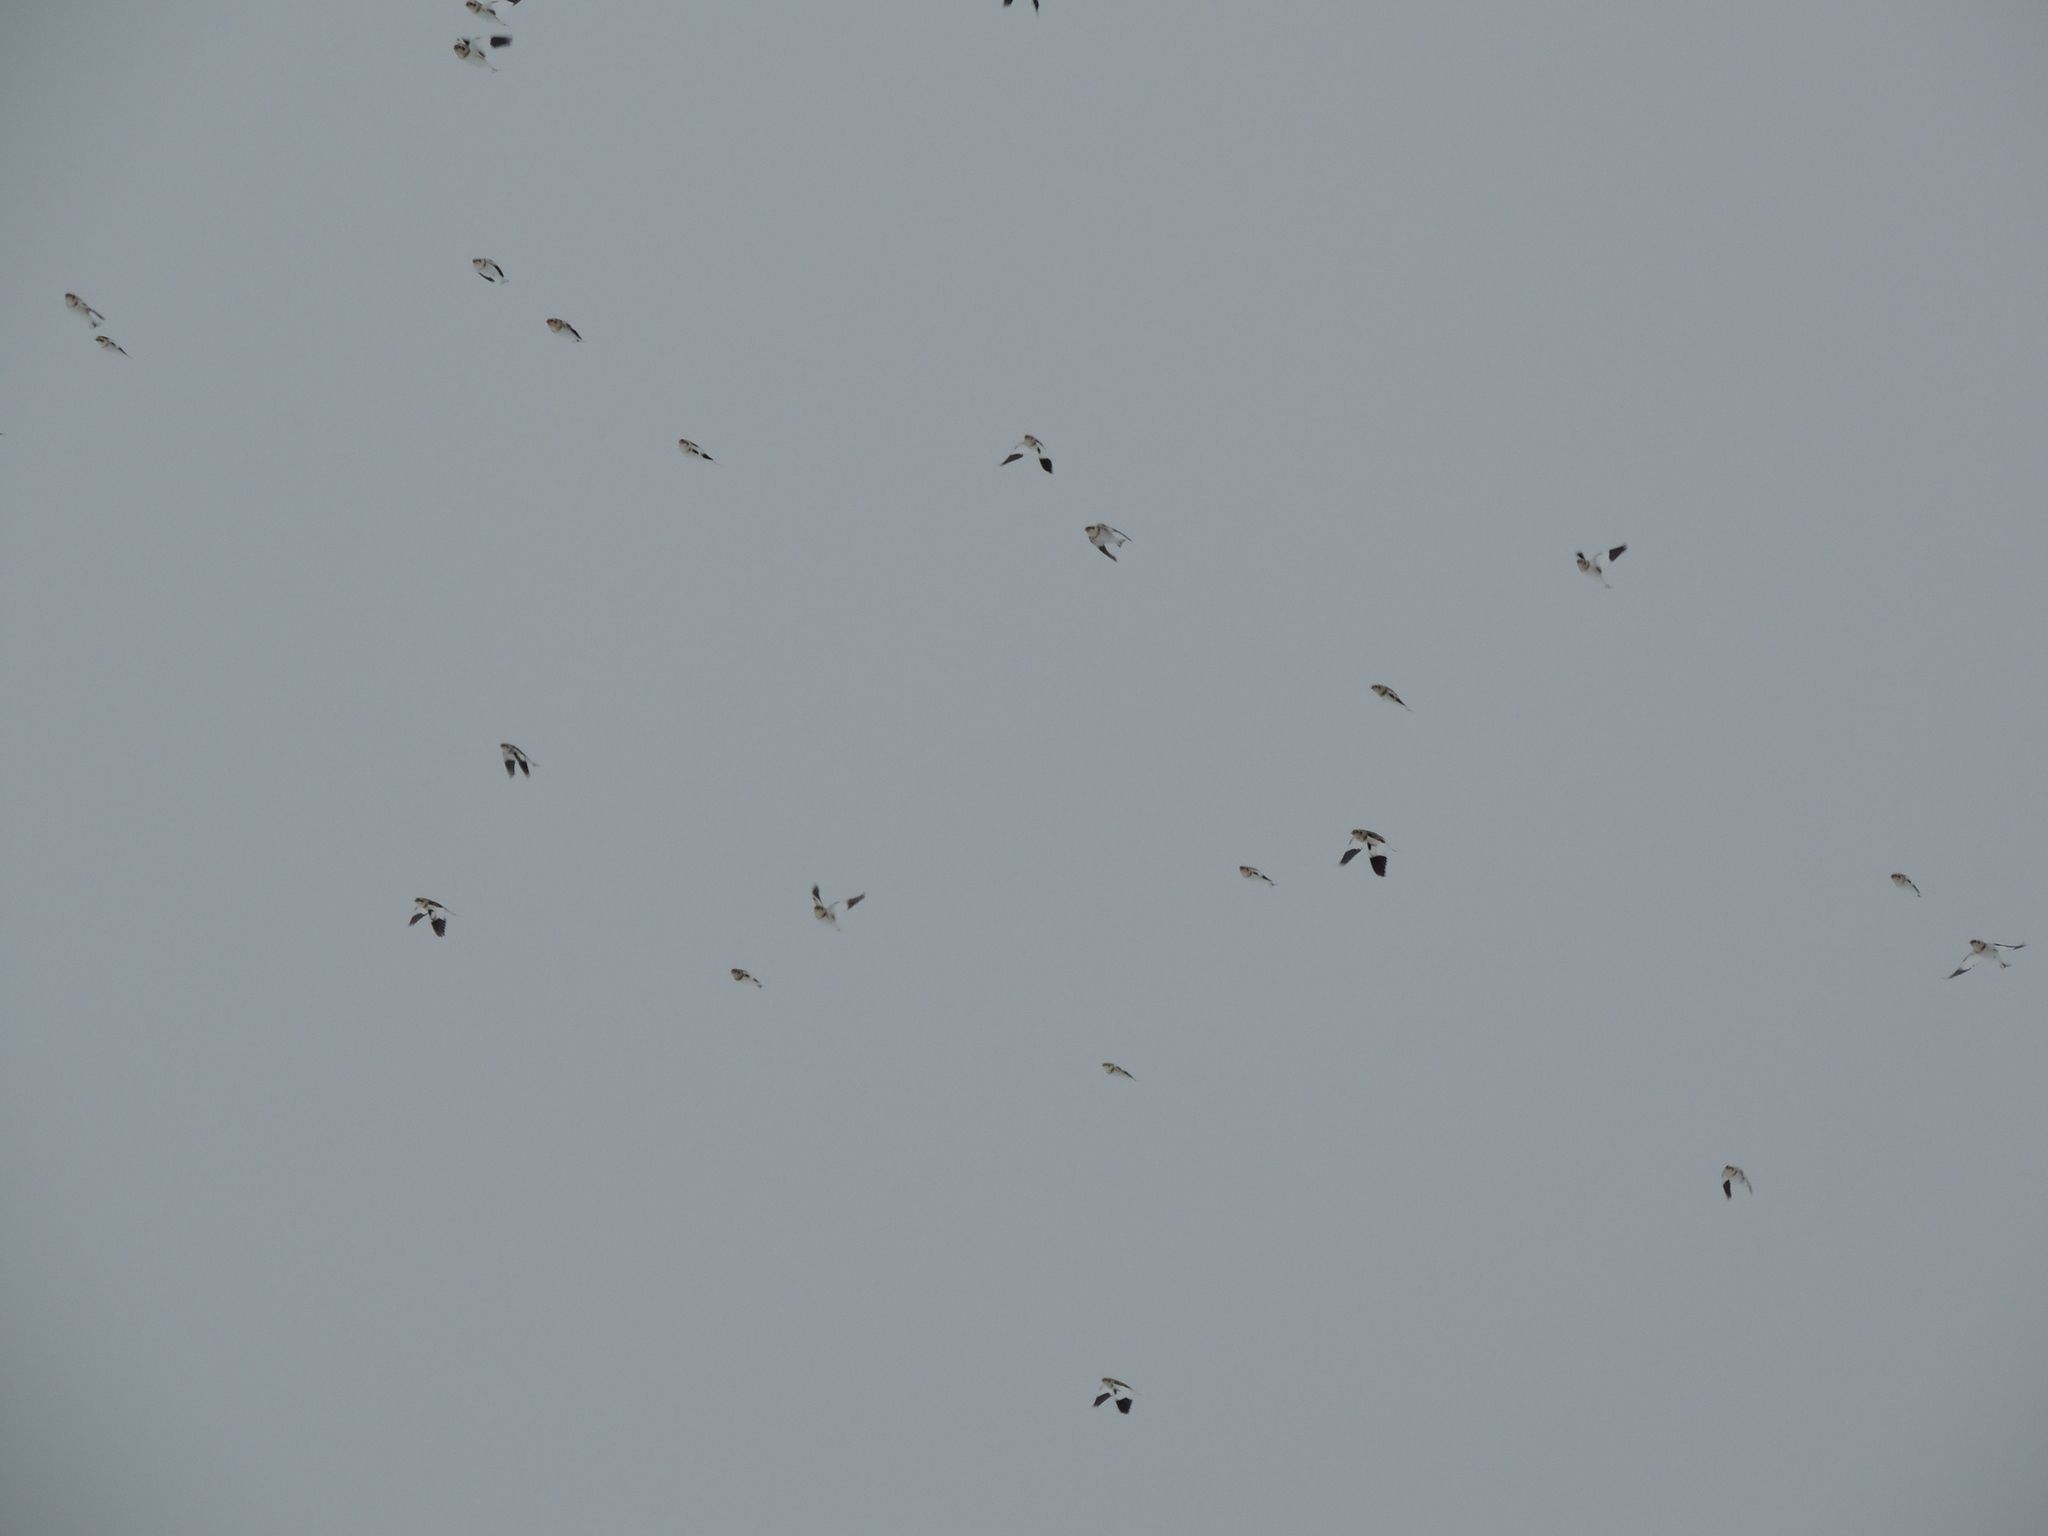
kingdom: Animalia
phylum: Chordata
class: Aves
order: Passeriformes
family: Calcariidae
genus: Plectrophenax
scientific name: Plectrophenax nivalis
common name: Snow bunting
